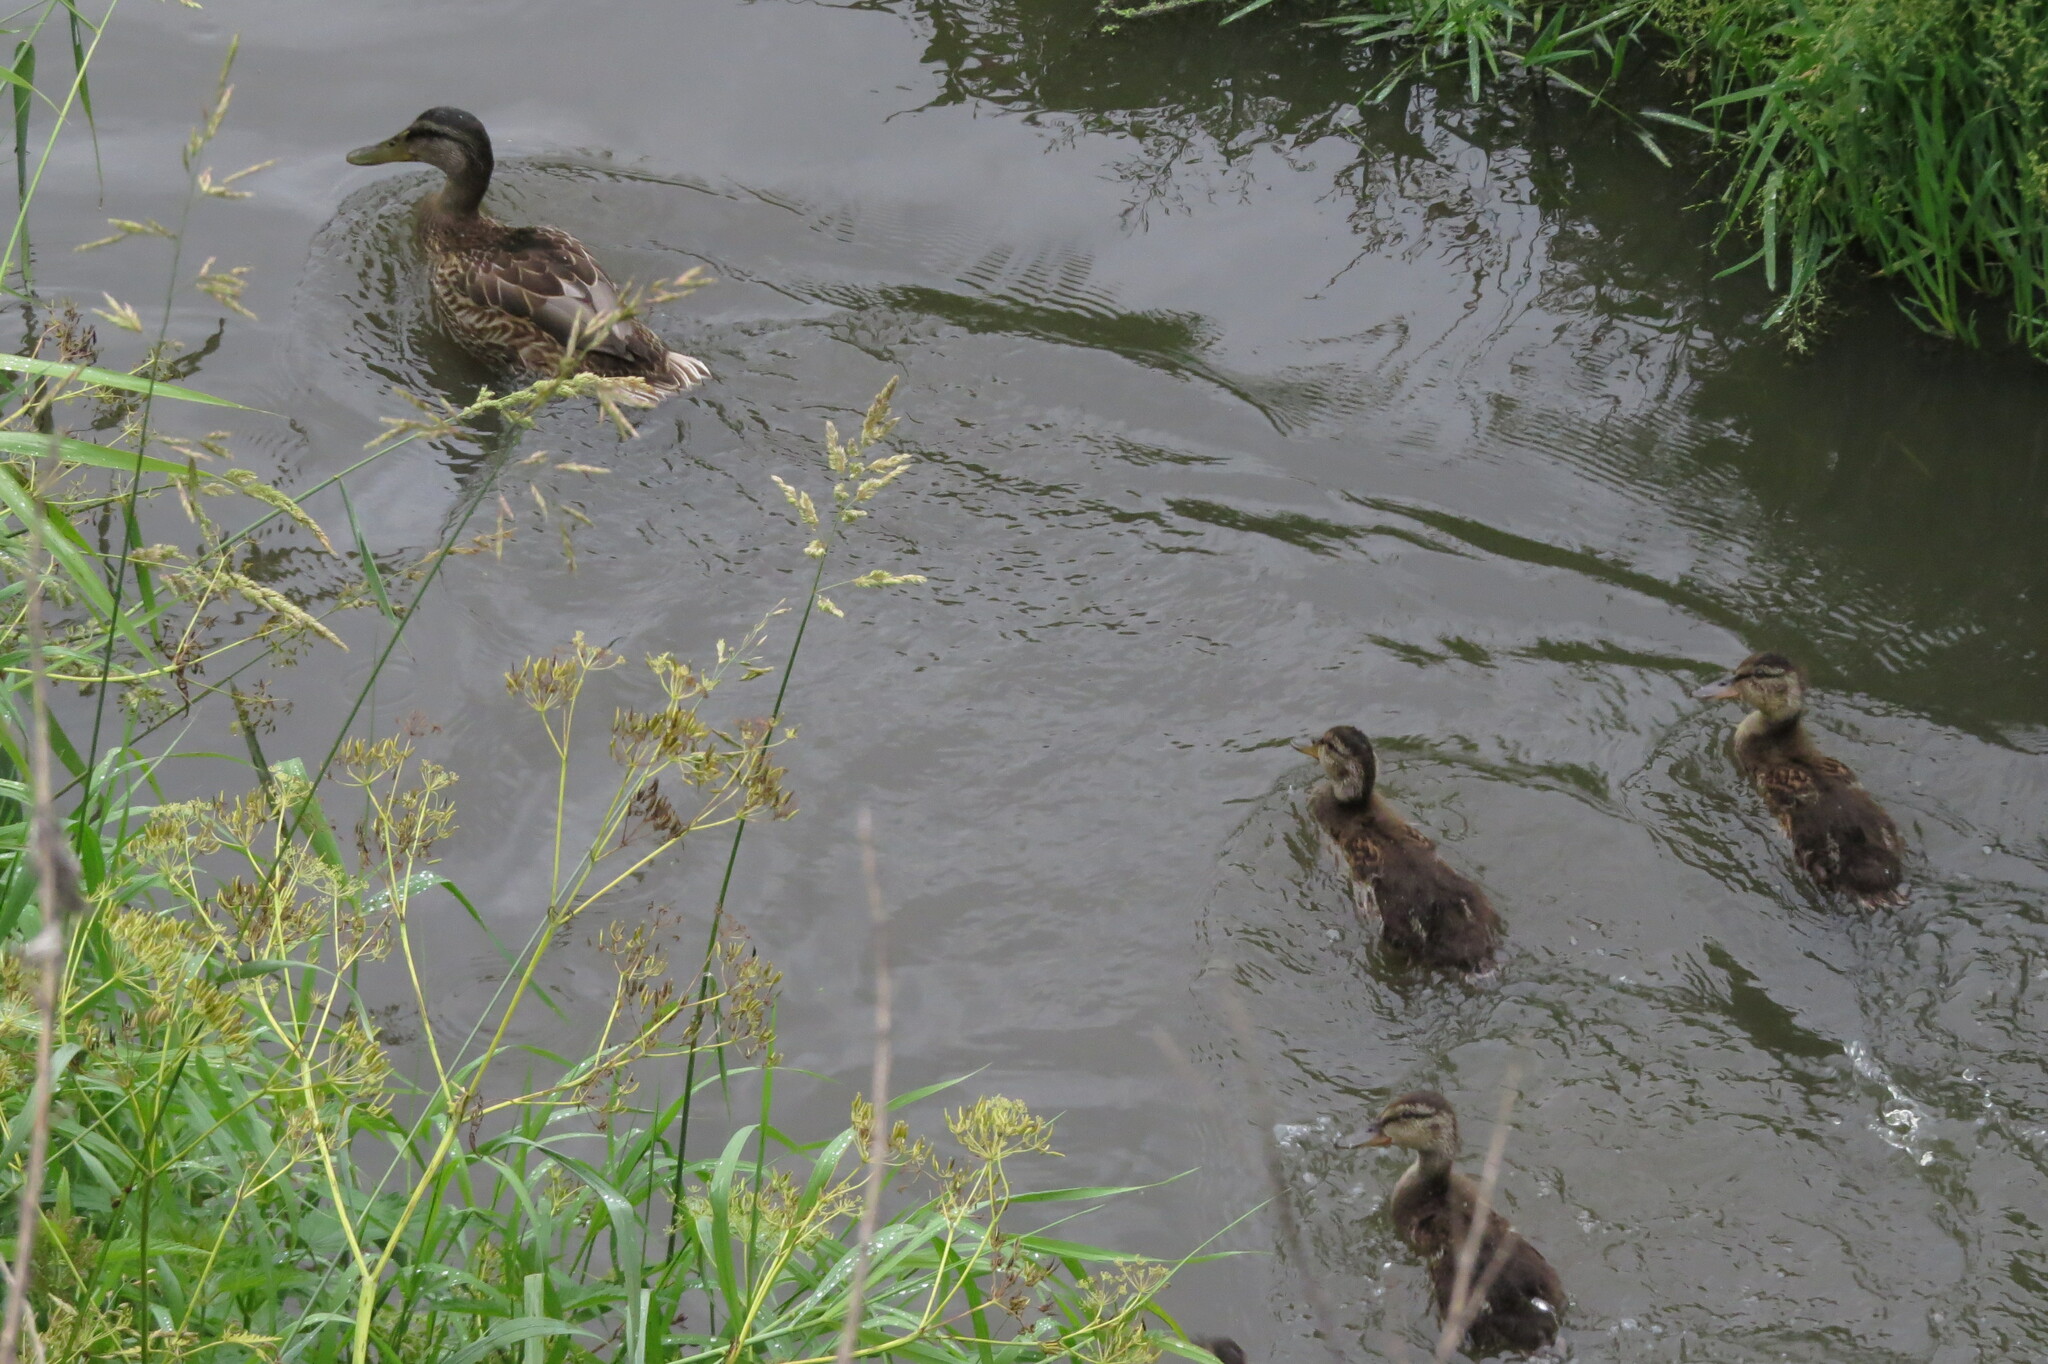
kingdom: Animalia
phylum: Chordata
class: Aves
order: Anseriformes
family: Anatidae
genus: Anas
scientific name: Anas platyrhynchos
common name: Mallard
